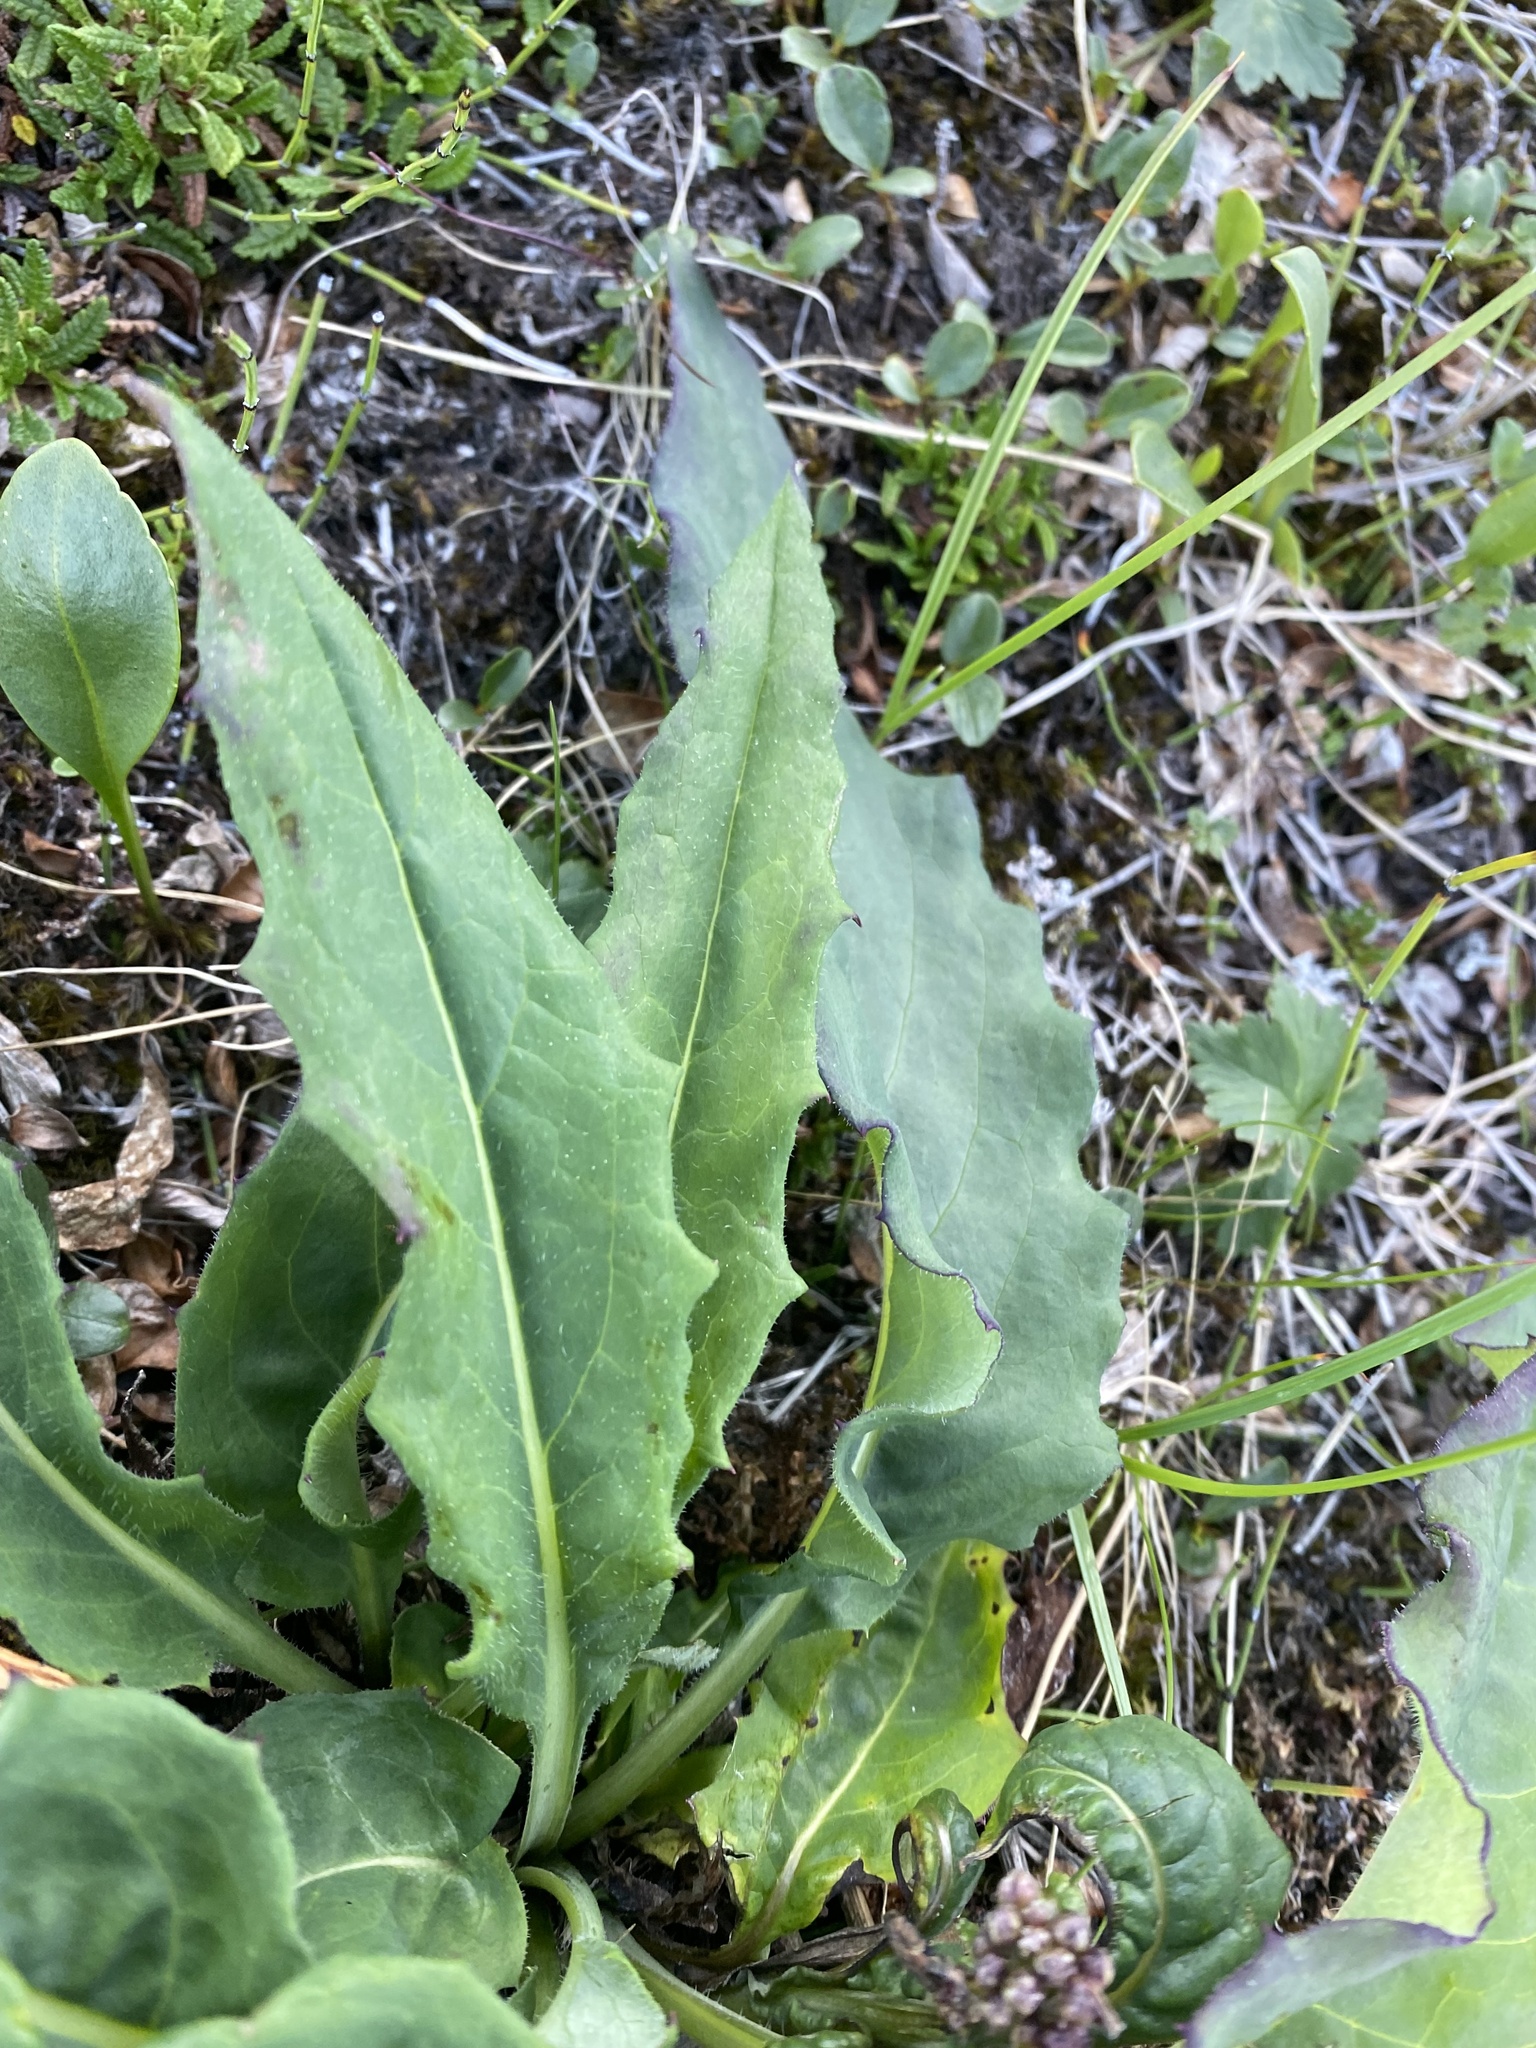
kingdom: Plantae
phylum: Tracheophyta
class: Magnoliopsida
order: Asterales
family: Asteraceae
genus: Saussurea
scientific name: Saussurea tilesii
